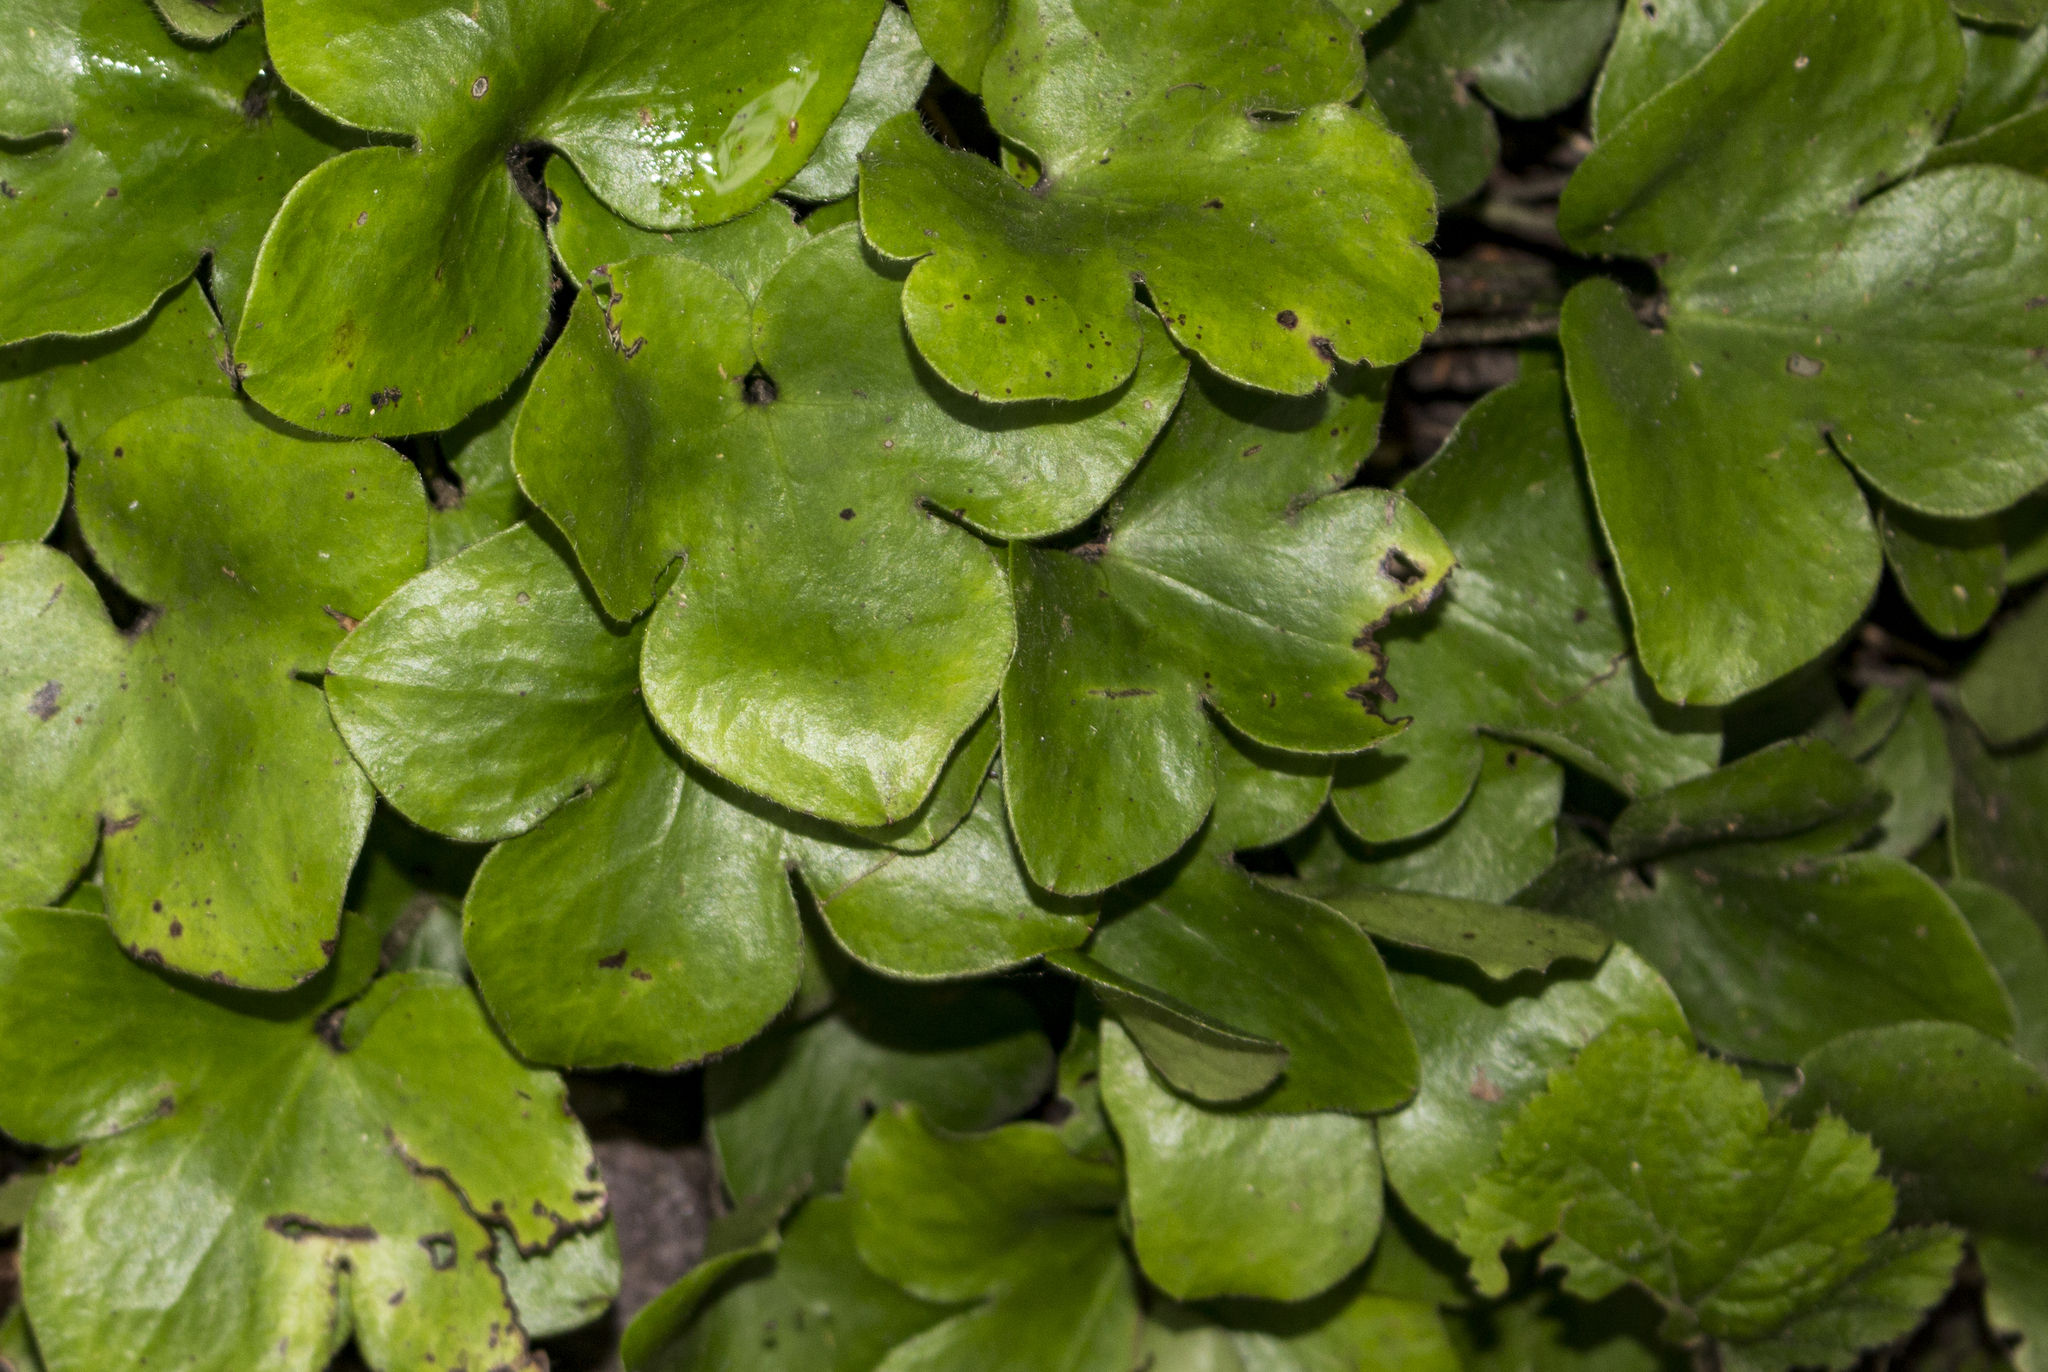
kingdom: Plantae
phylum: Tracheophyta
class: Magnoliopsida
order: Ranunculales
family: Ranunculaceae
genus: Hepatica
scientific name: Hepatica americana
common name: American hepatica
